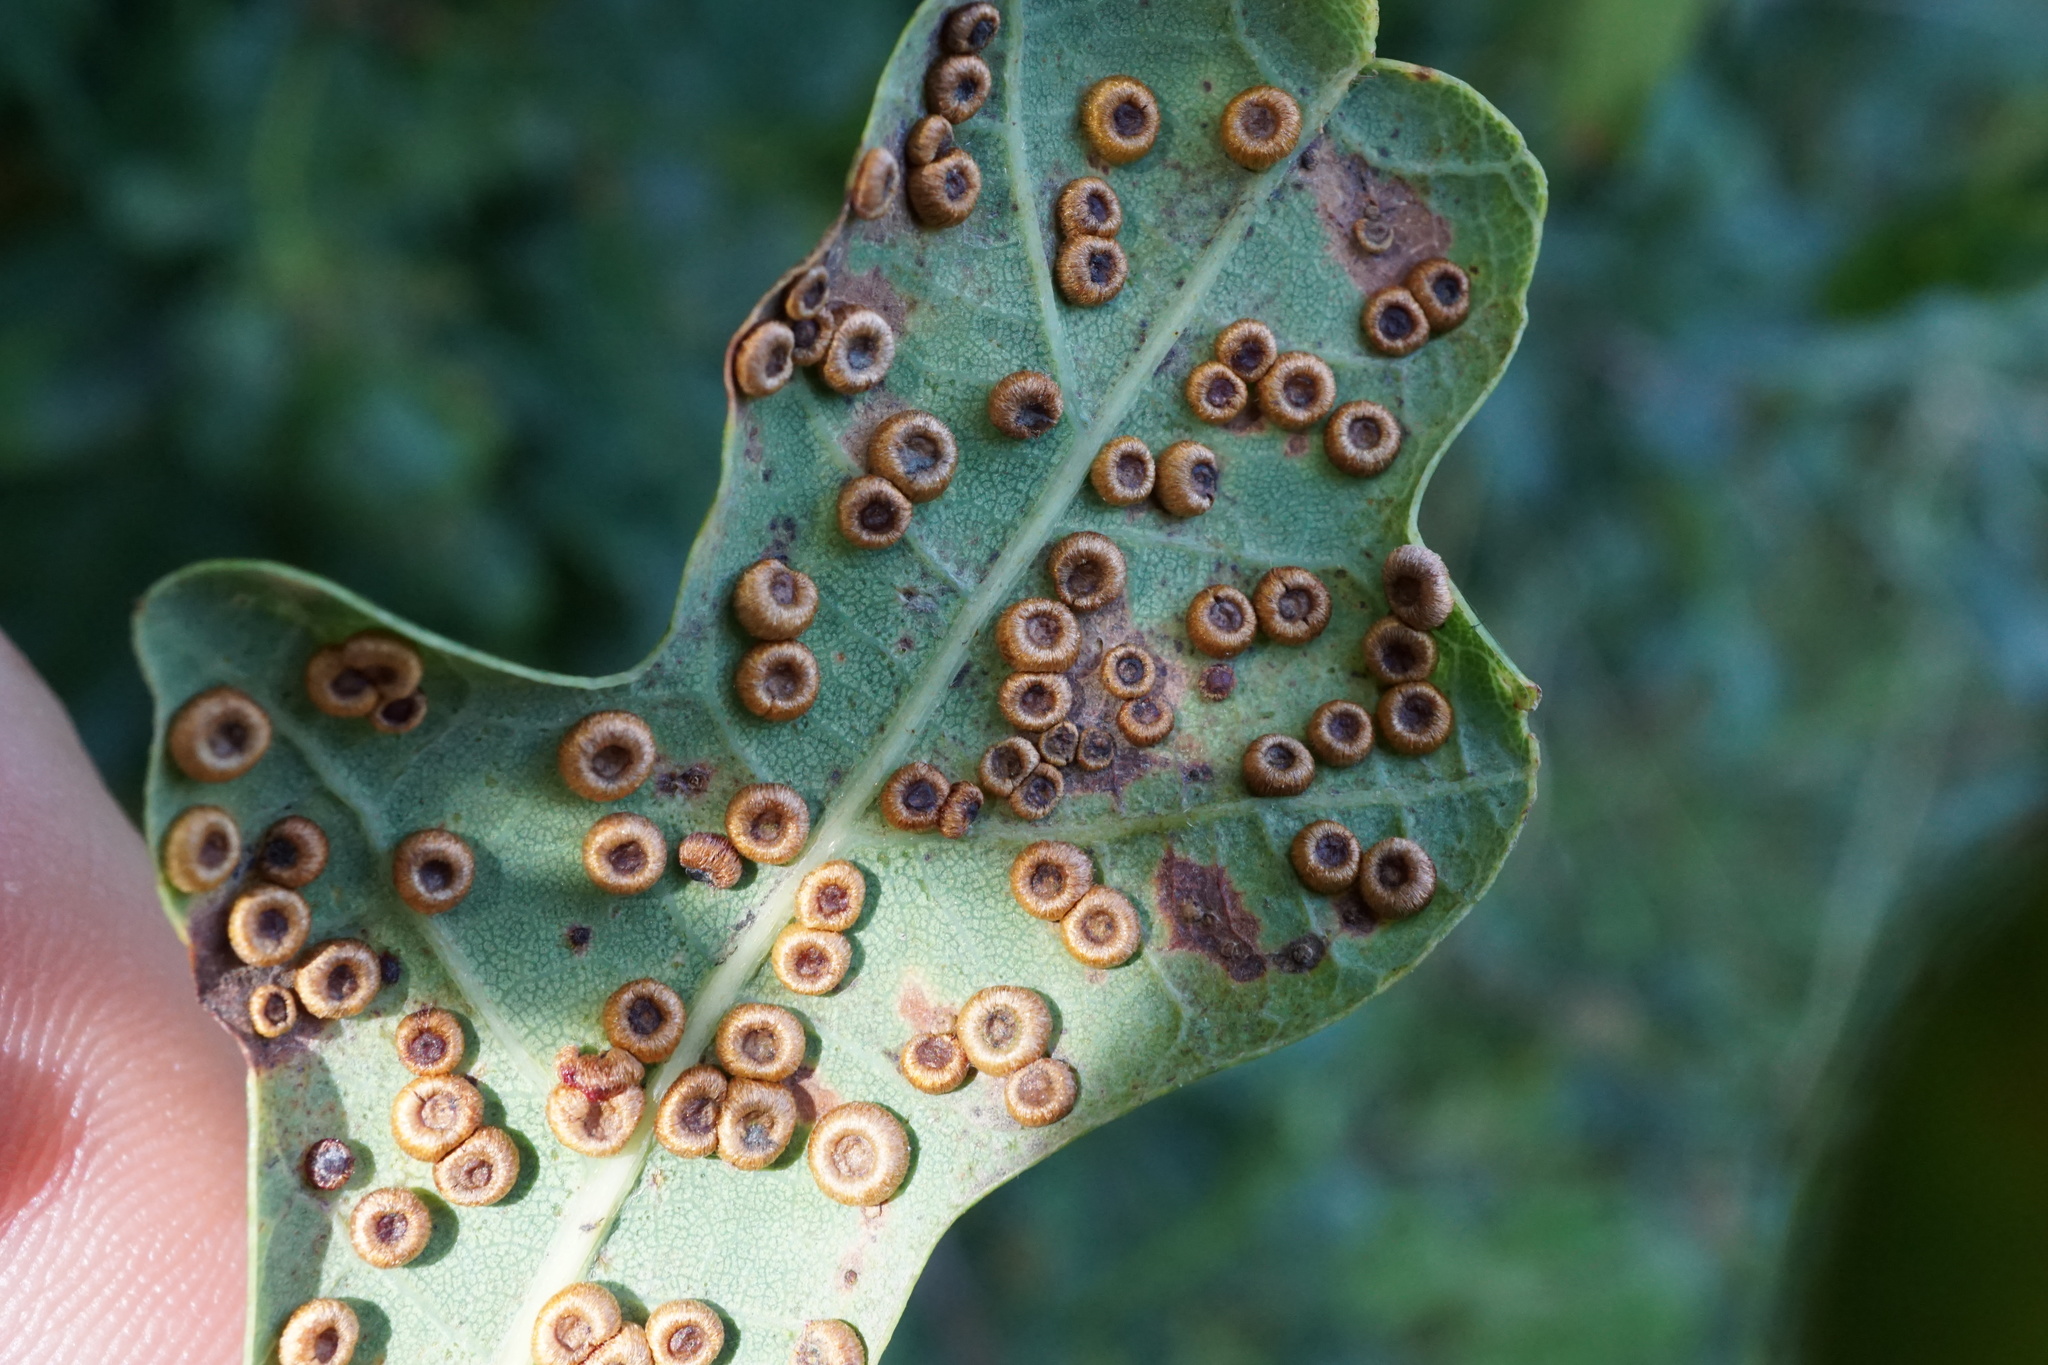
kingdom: Animalia
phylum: Arthropoda
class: Insecta
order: Hymenoptera
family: Cynipidae
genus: Neuroterus
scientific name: Neuroterus numismalis
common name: Silk-button spangle gall
